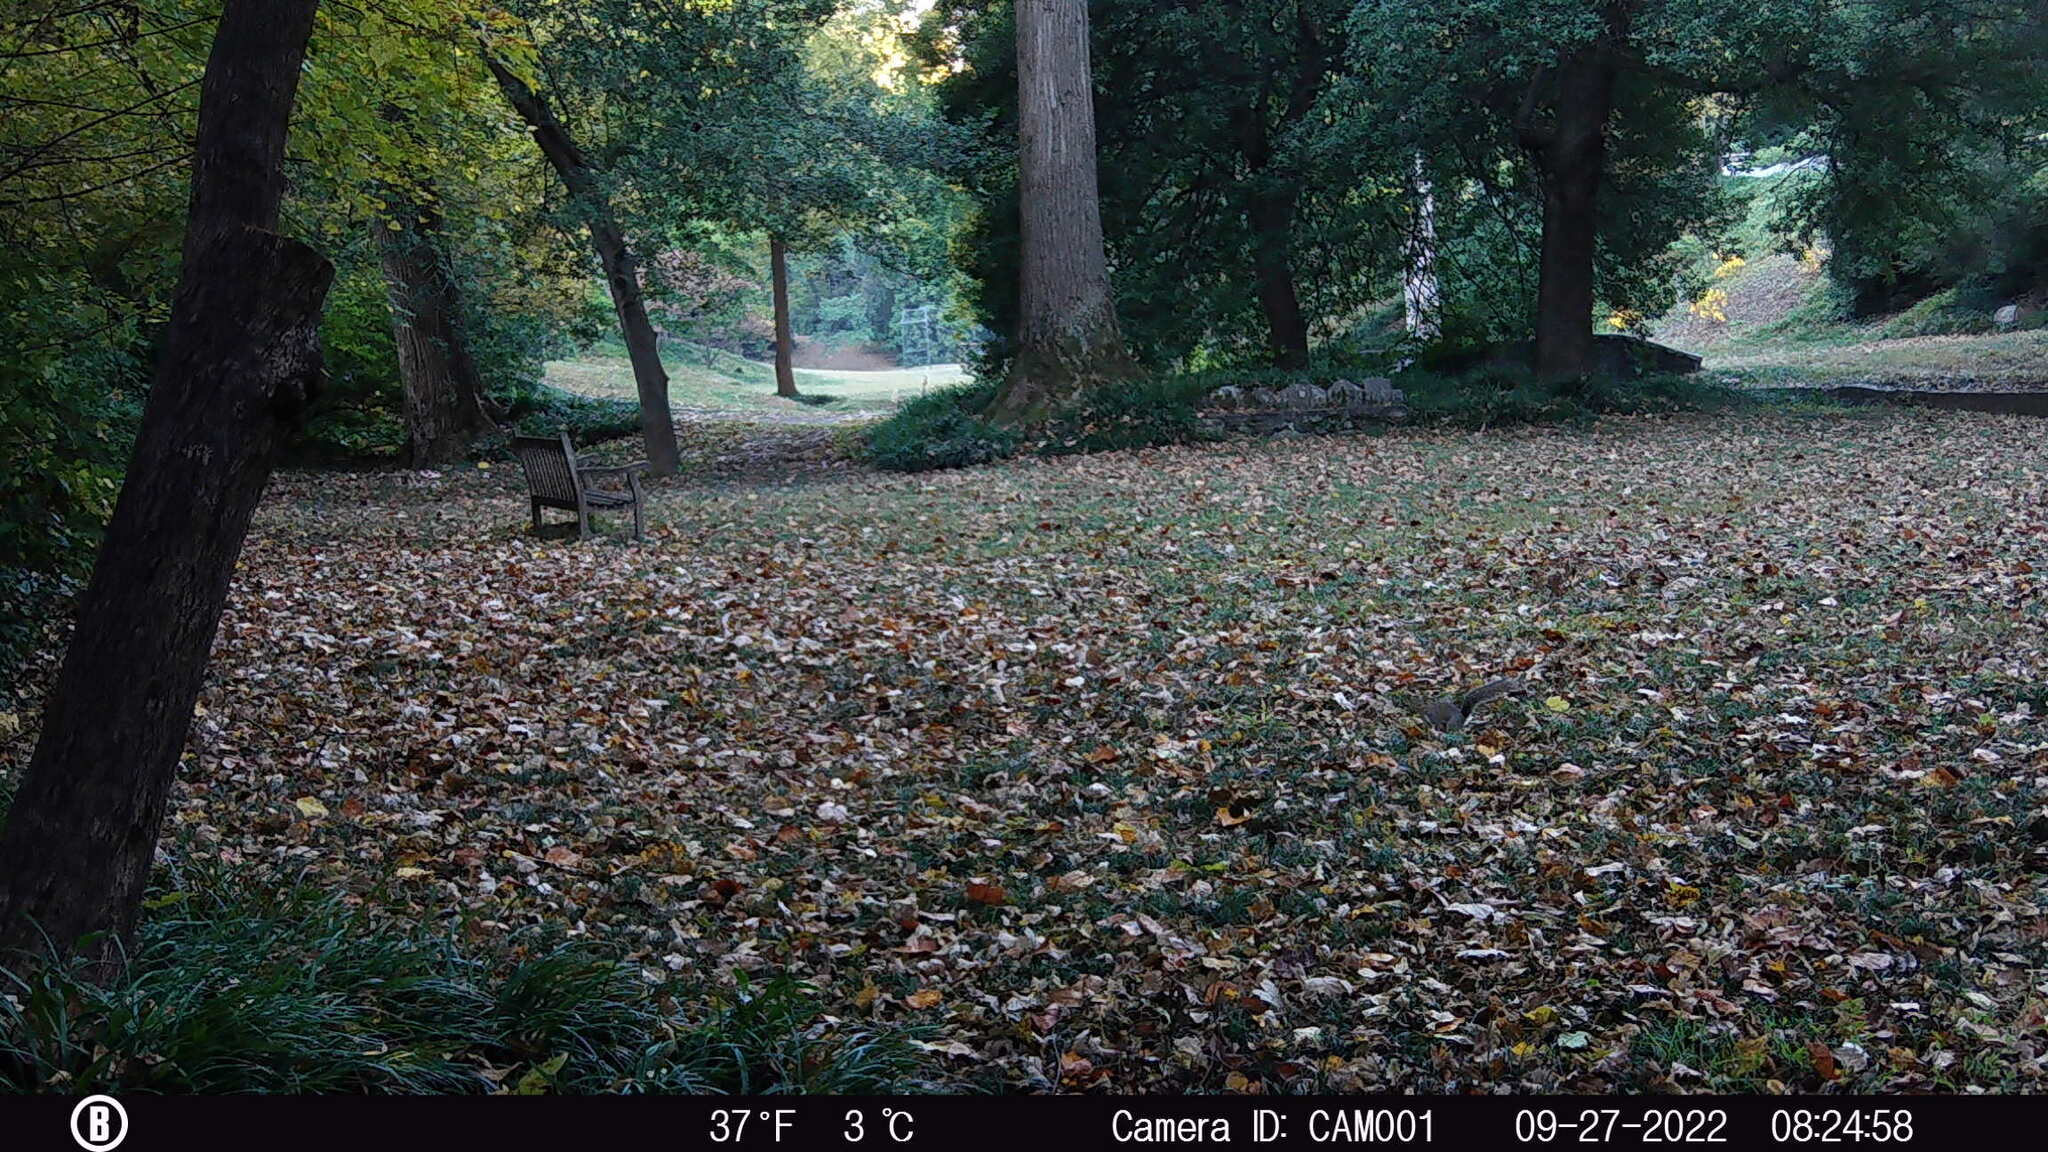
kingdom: Animalia
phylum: Chordata
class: Mammalia
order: Rodentia
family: Sciuridae
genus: Sciurus
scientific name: Sciurus carolinensis
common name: Eastern gray squirrel
